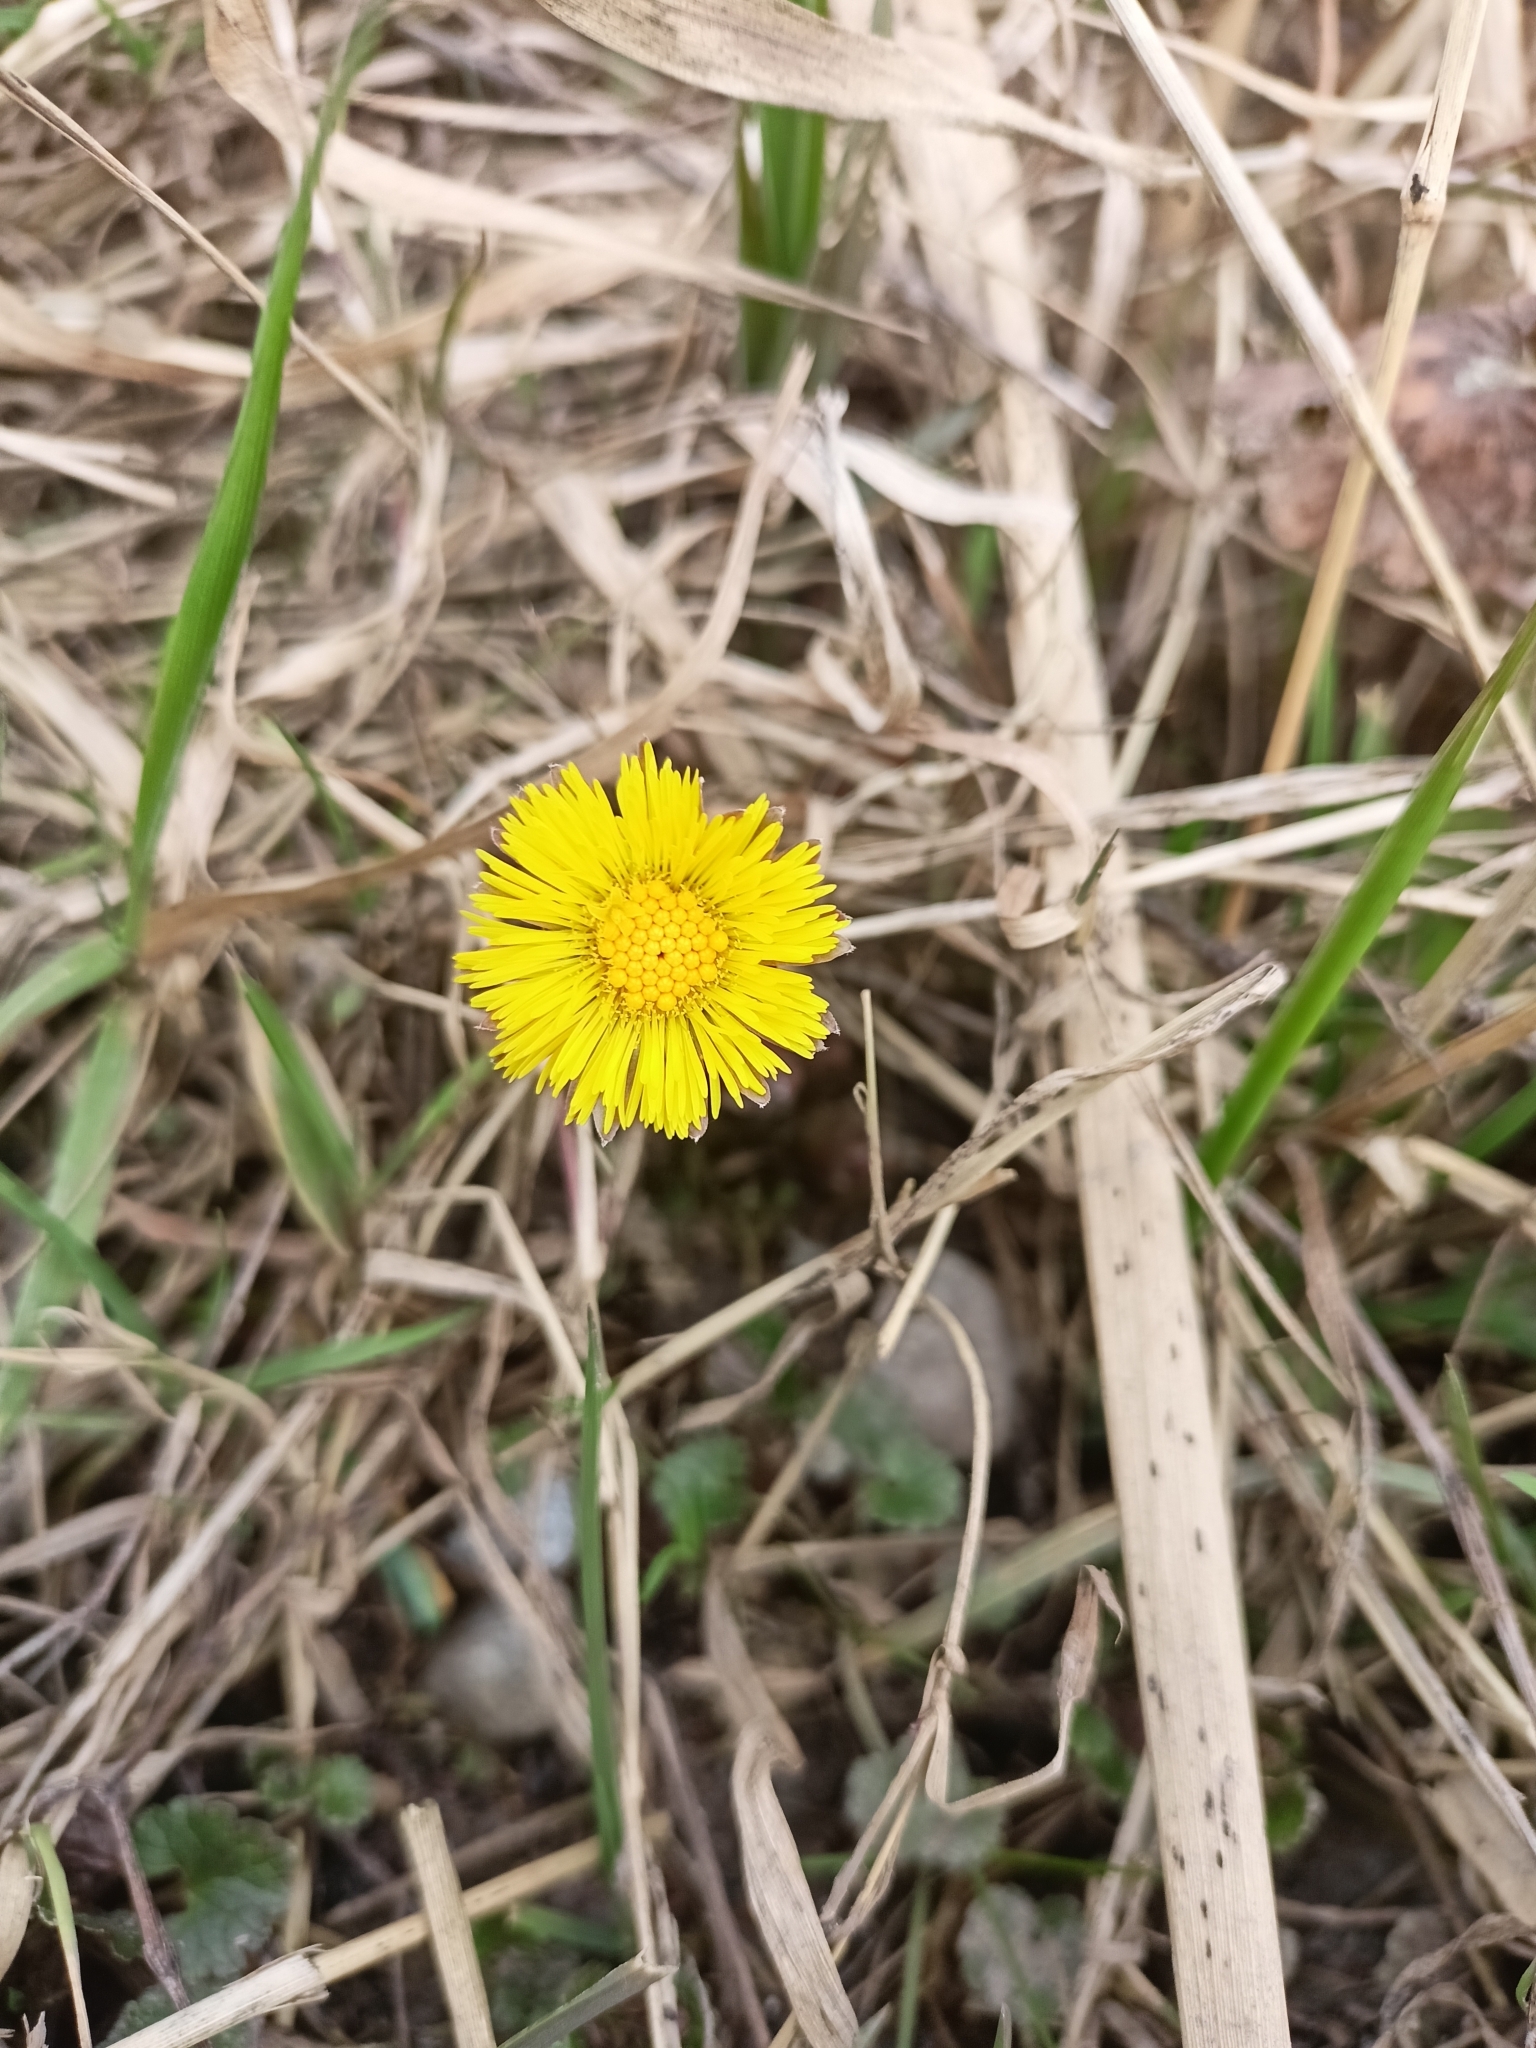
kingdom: Plantae
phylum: Tracheophyta
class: Magnoliopsida
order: Asterales
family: Asteraceae
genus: Tussilago
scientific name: Tussilago farfara
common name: Coltsfoot
